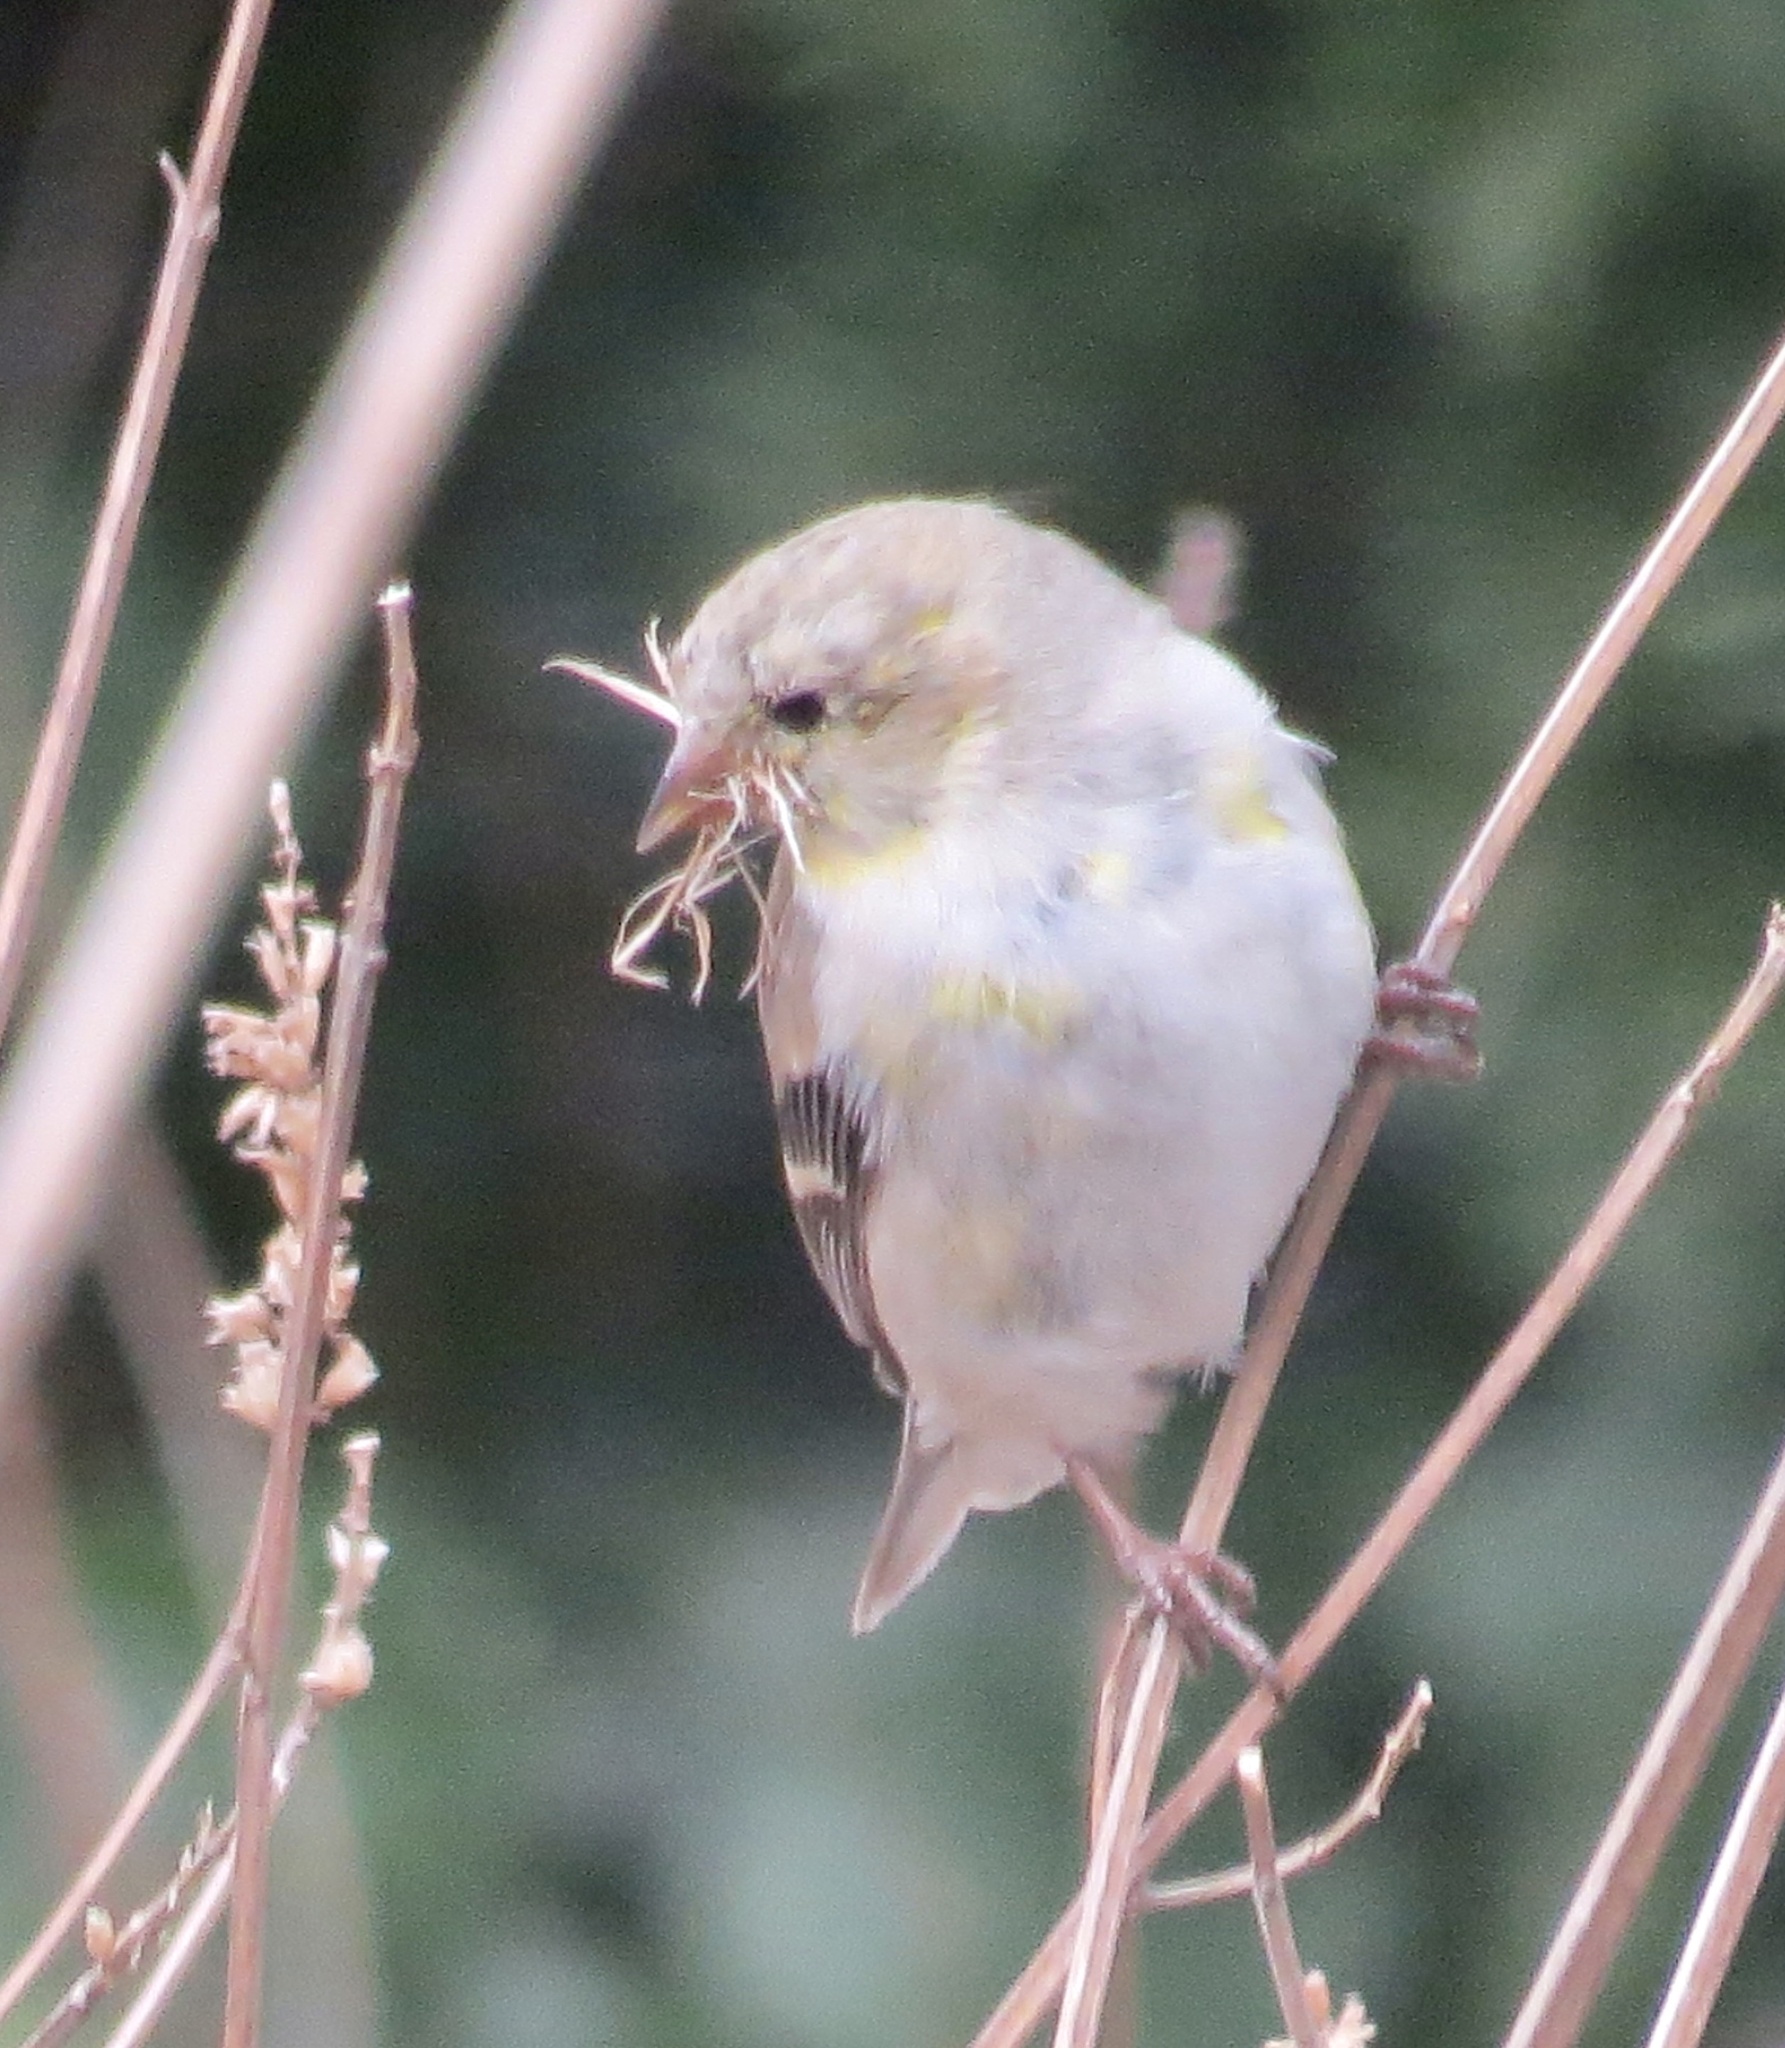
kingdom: Animalia
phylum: Chordata
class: Aves
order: Passeriformes
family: Fringillidae
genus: Spinus
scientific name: Spinus tristis
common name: American goldfinch
